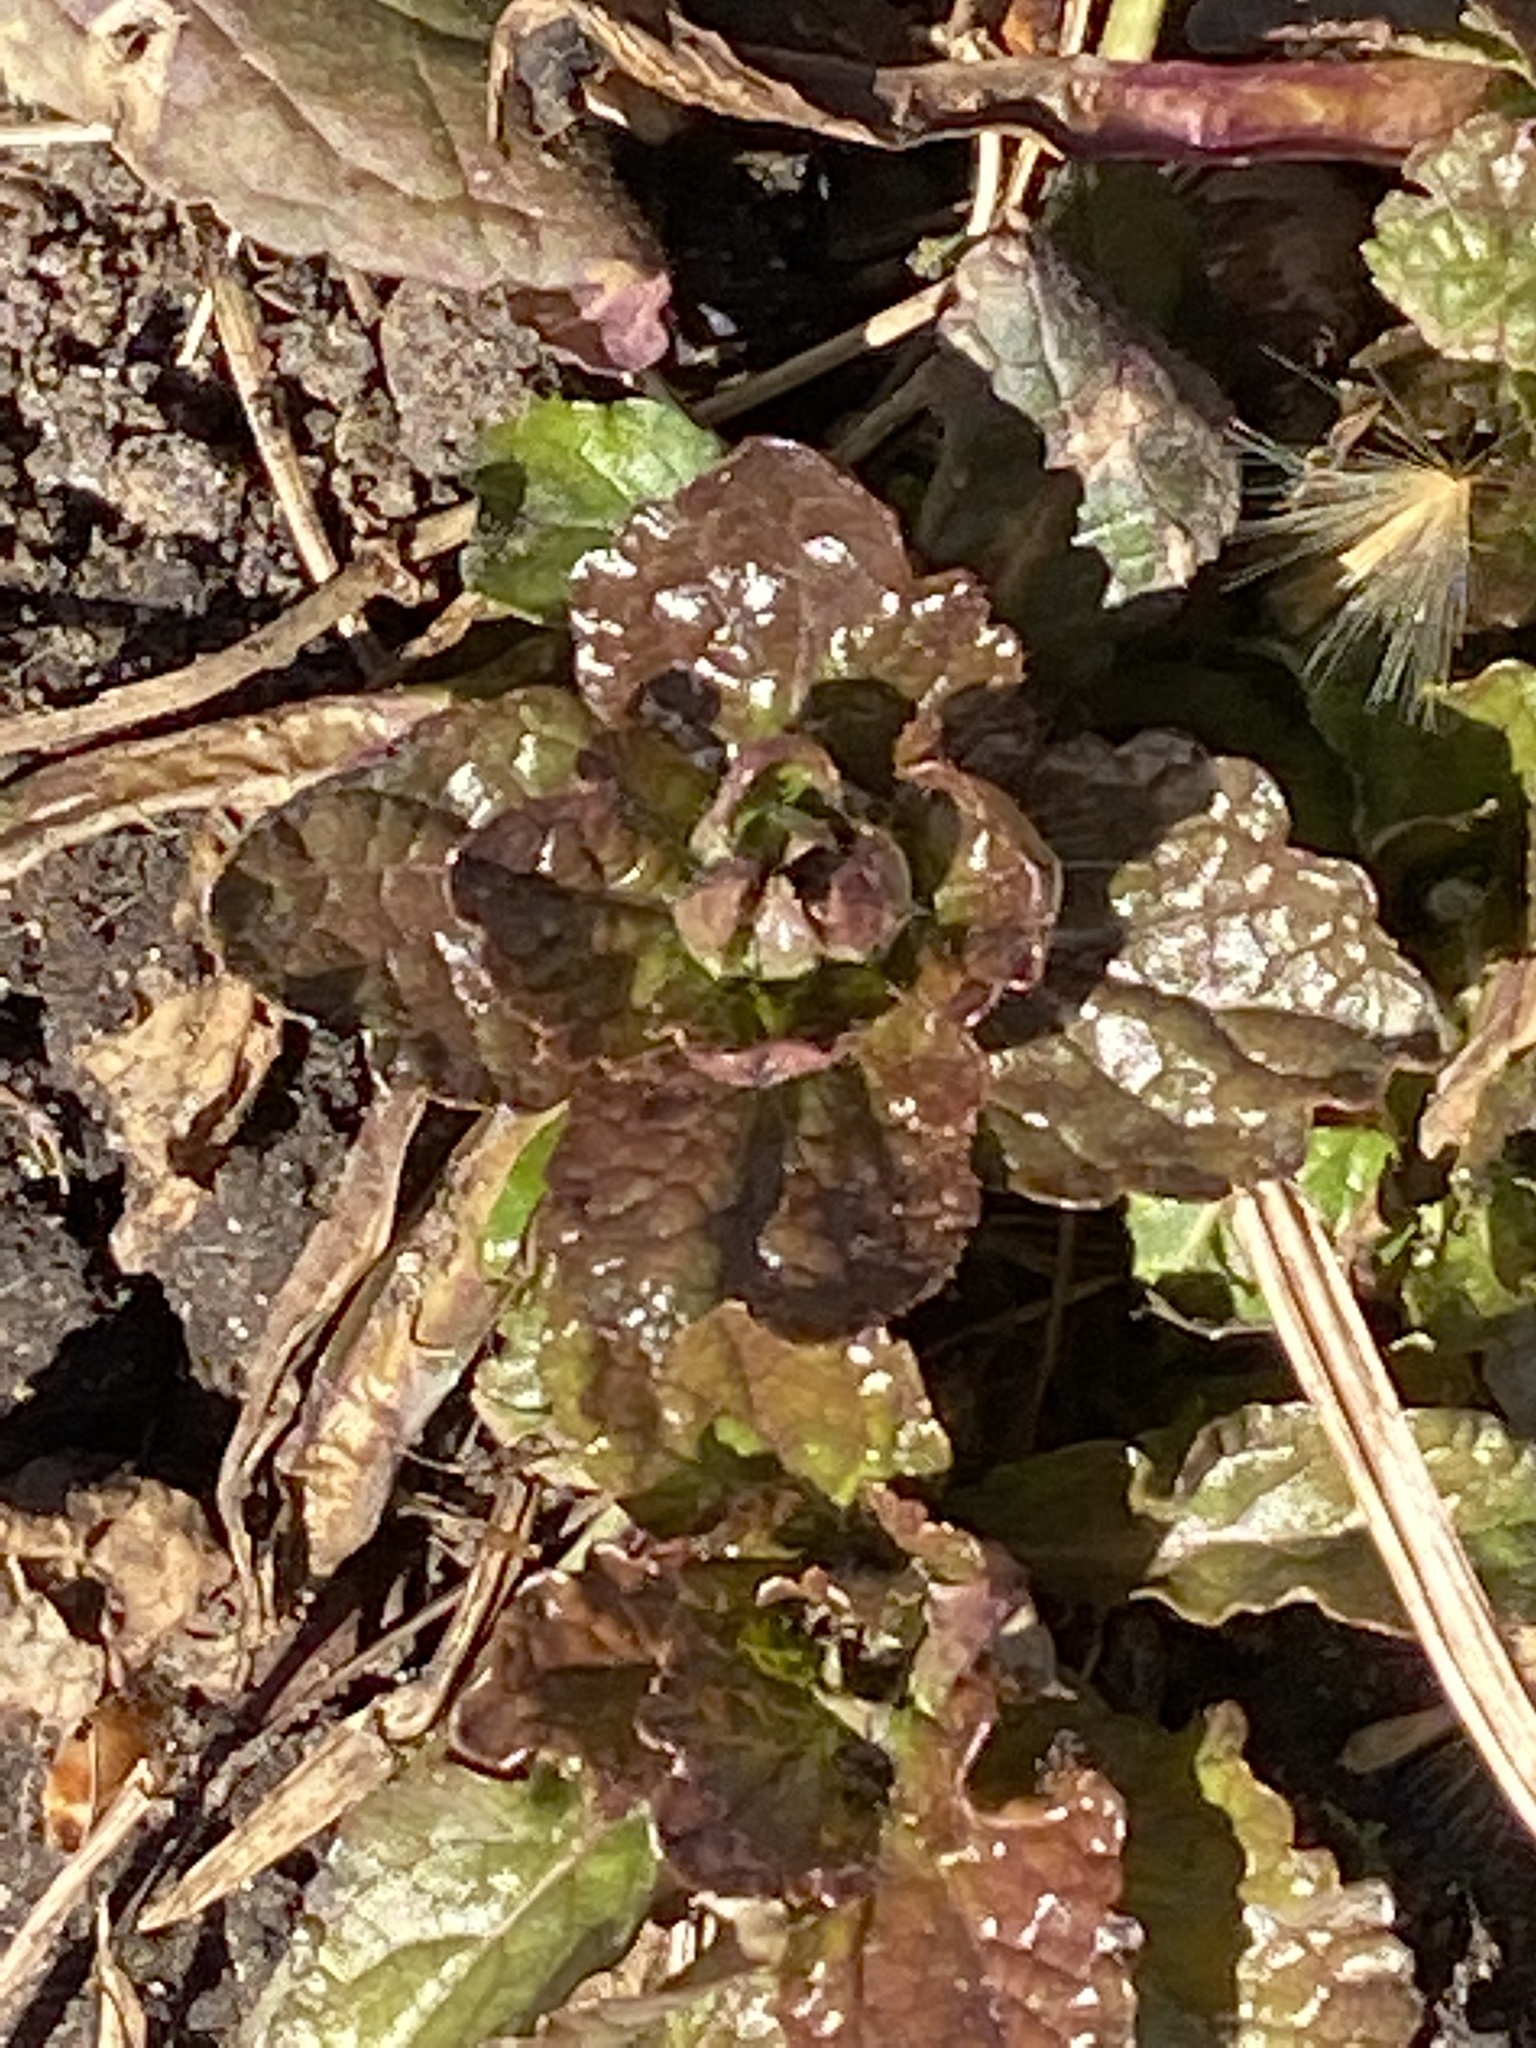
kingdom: Plantae
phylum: Tracheophyta
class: Magnoliopsida
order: Lamiales
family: Lamiaceae
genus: Ajuga
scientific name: Ajuga reptans
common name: Bugle
